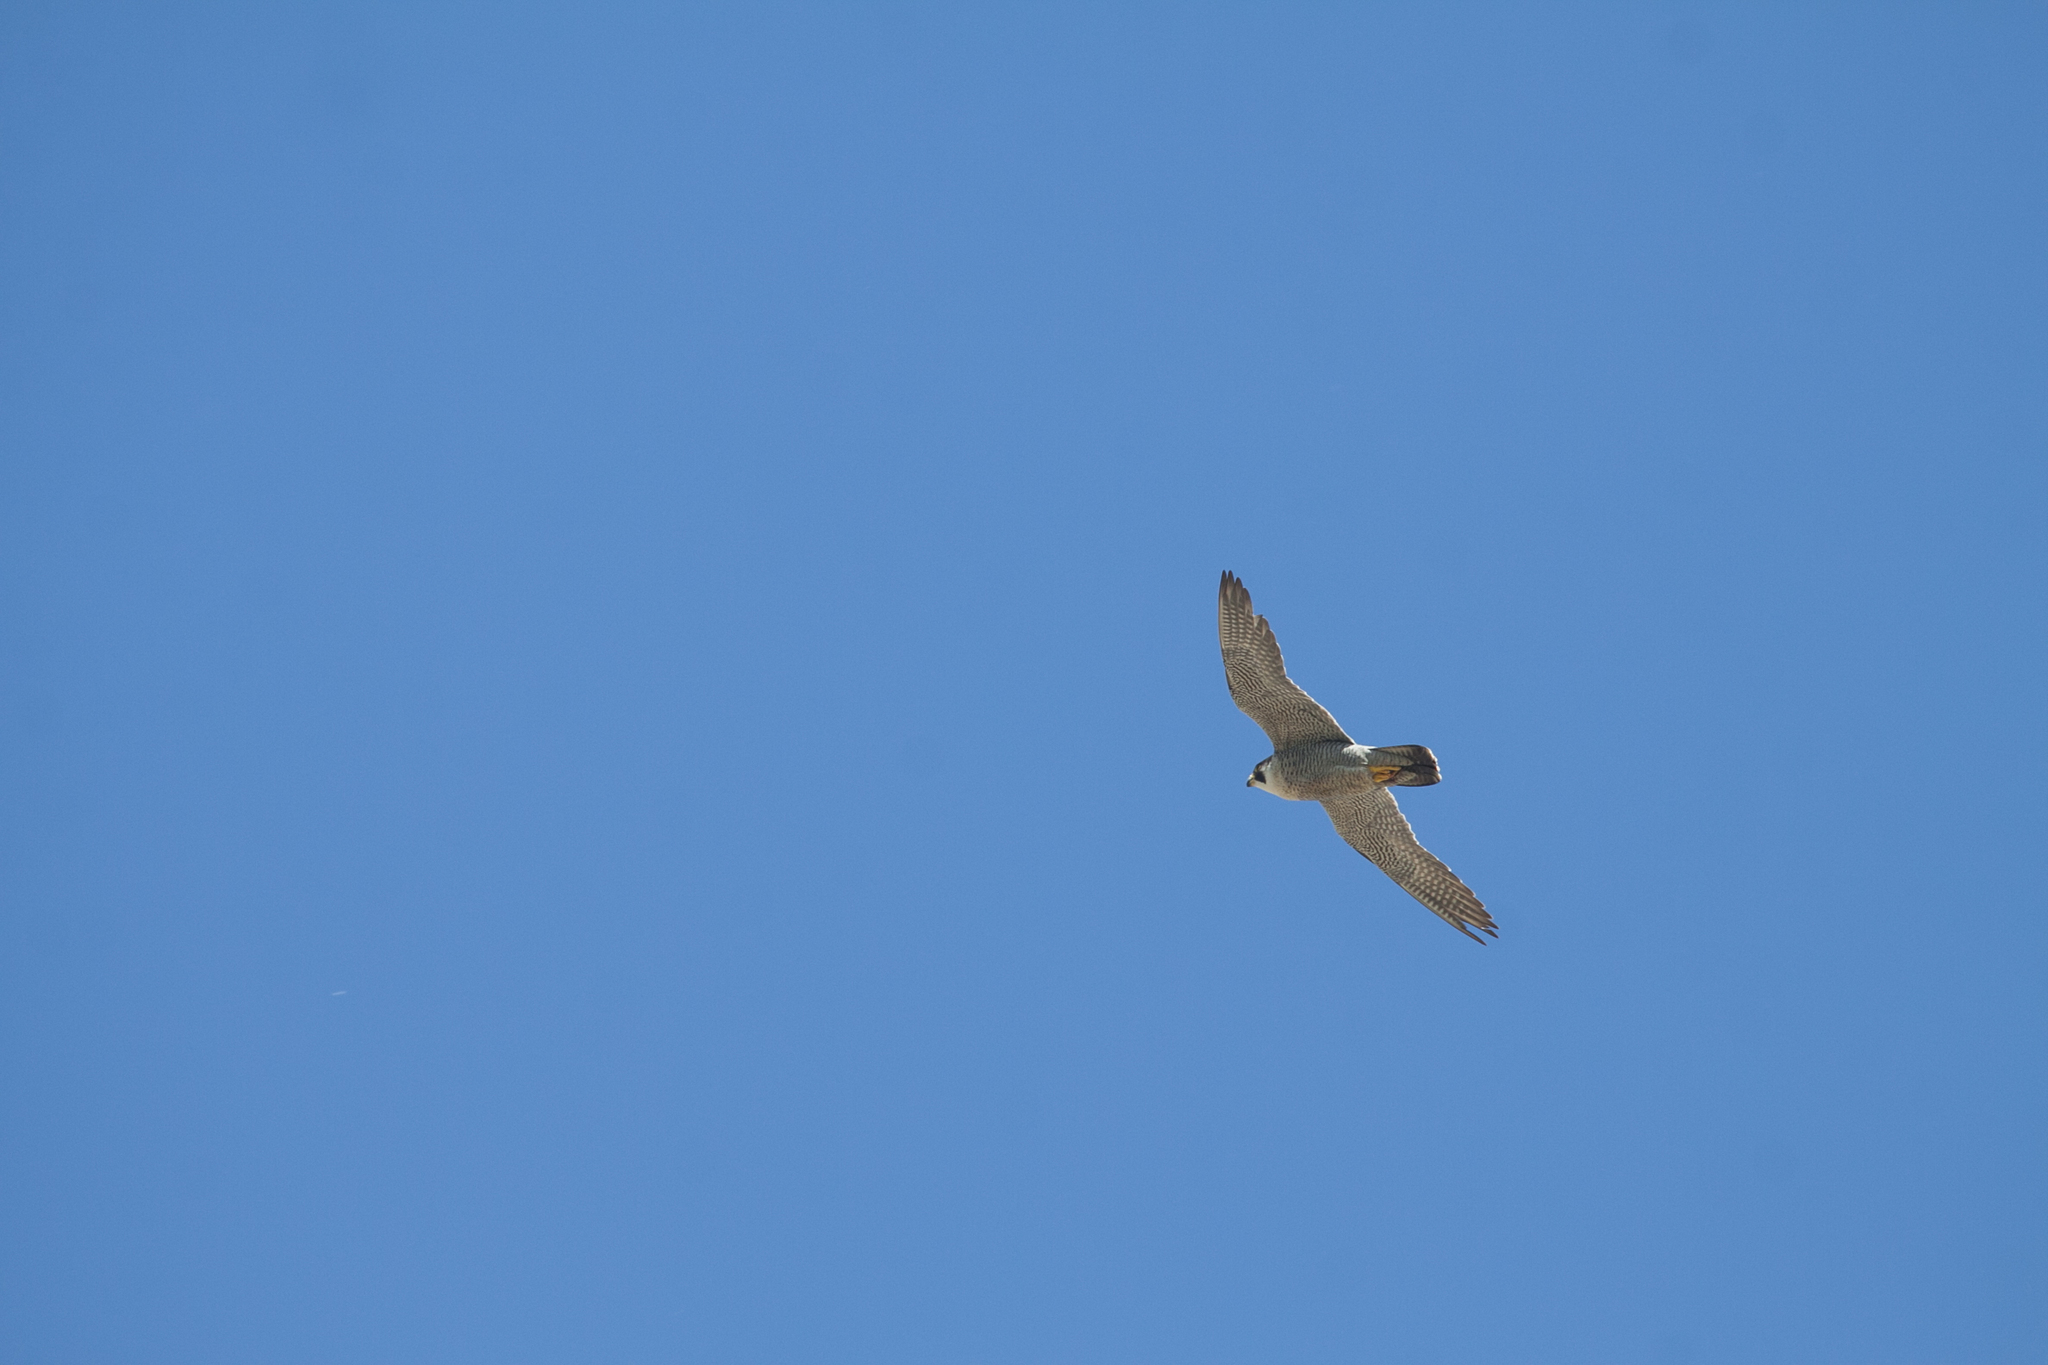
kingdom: Animalia
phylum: Chordata
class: Aves
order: Falconiformes
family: Falconidae
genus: Falco
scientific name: Falco peregrinus
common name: Peregrine falcon
